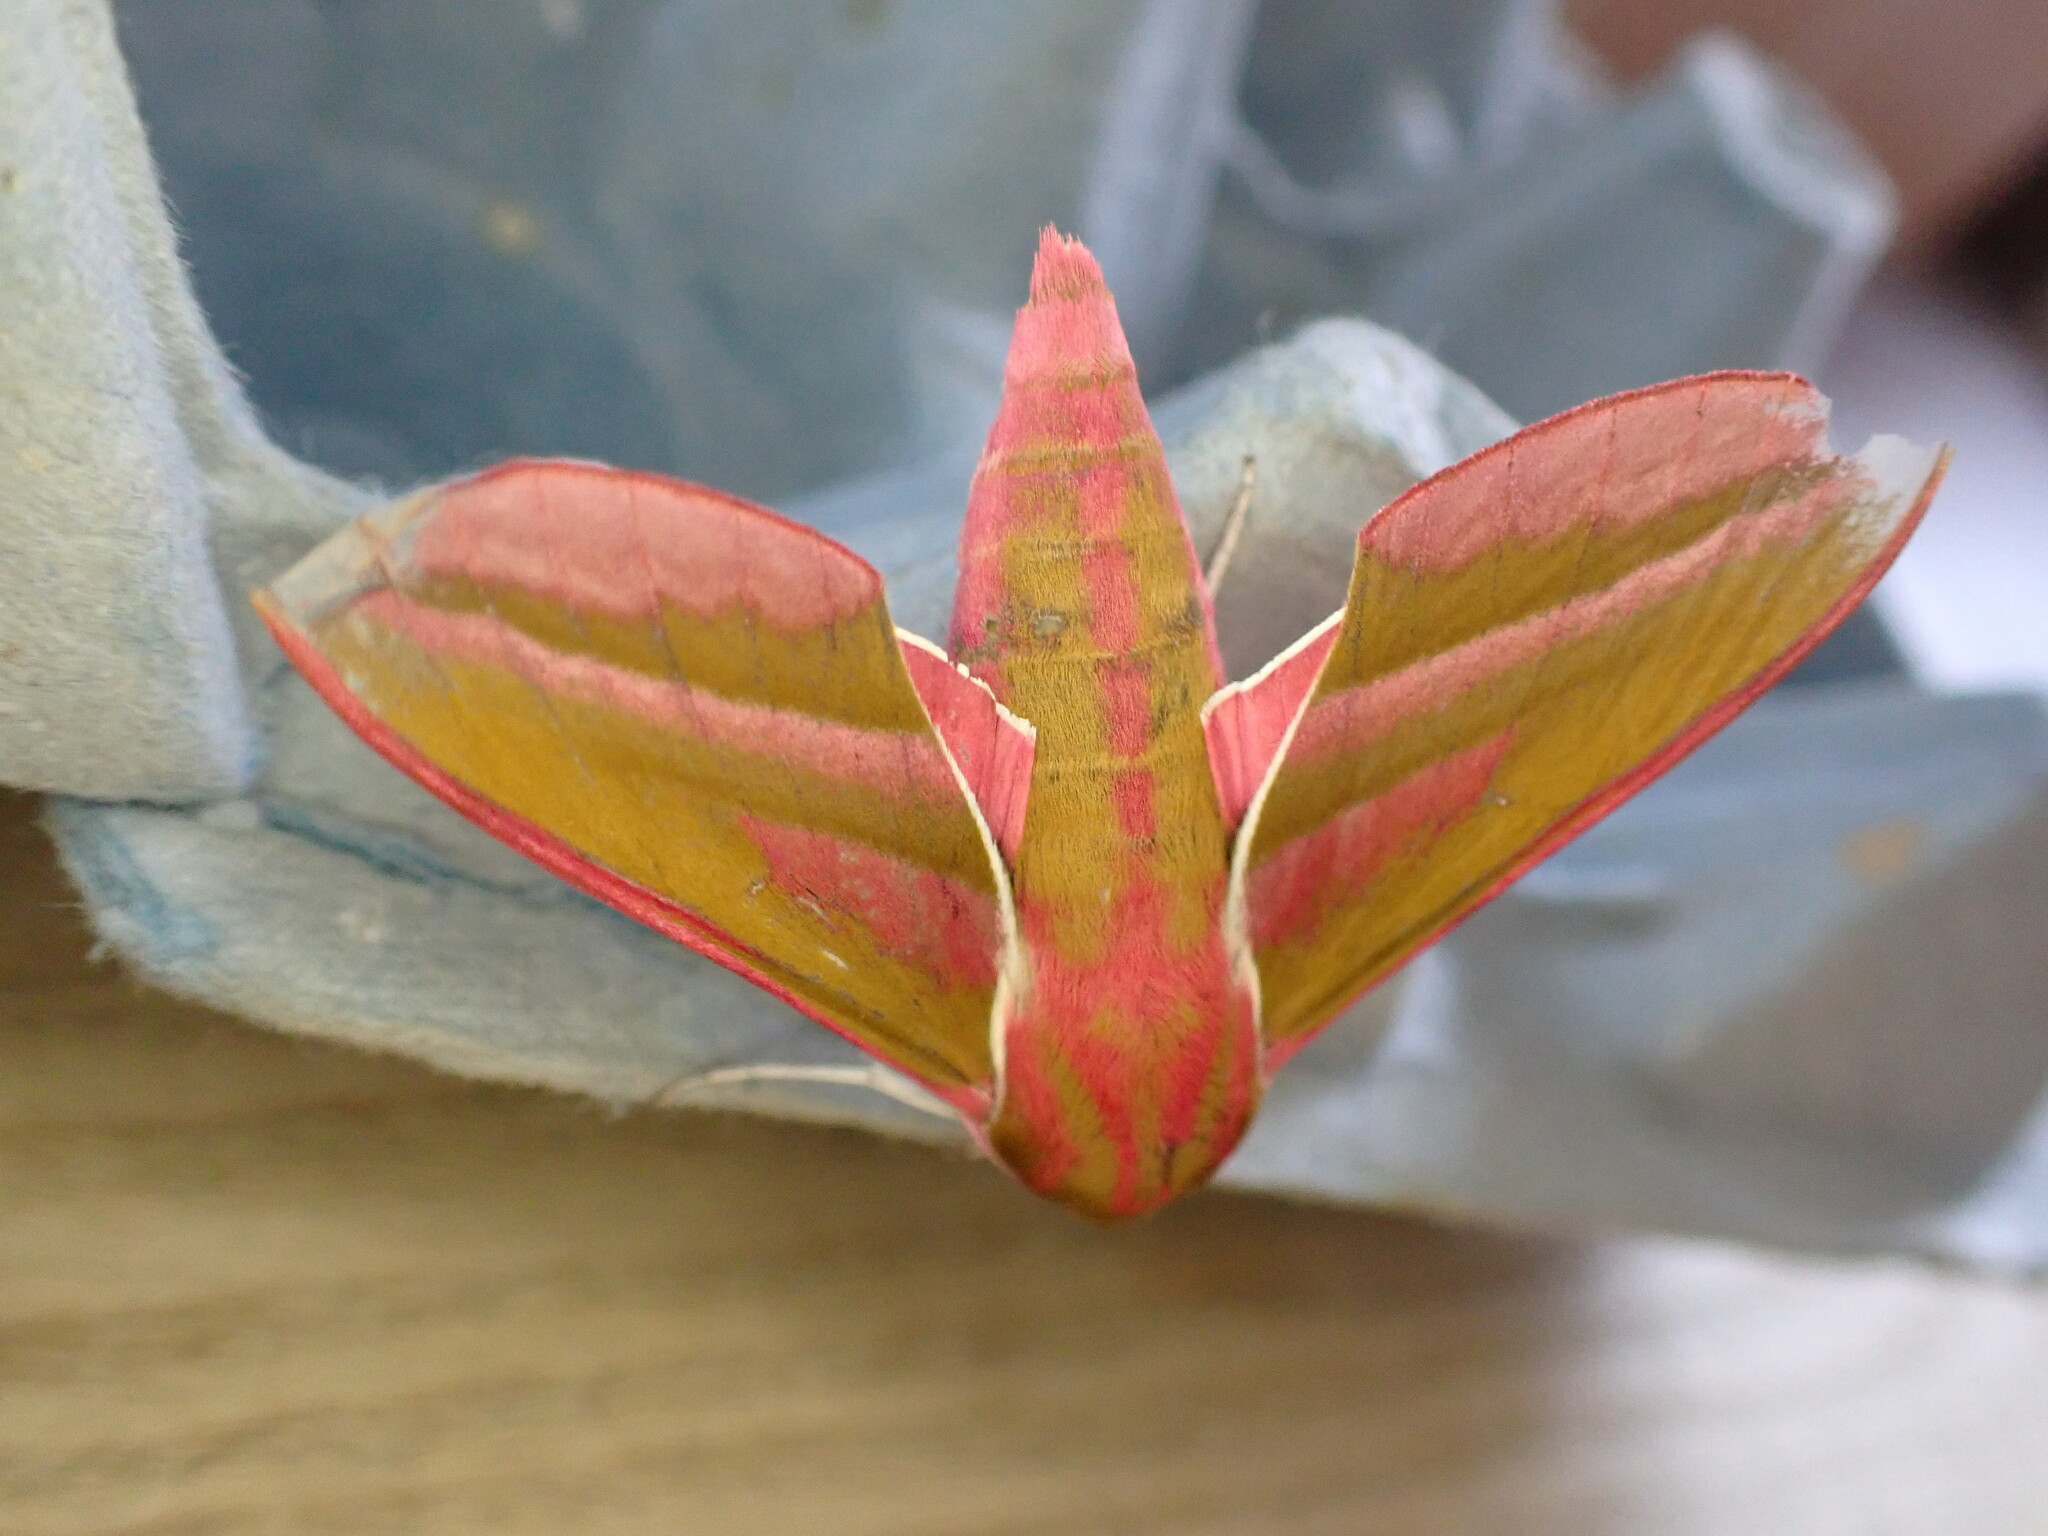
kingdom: Animalia
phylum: Arthropoda
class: Insecta
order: Lepidoptera
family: Sphingidae
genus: Deilephila
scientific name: Deilephila elpenor
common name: Elephant hawk-moth
